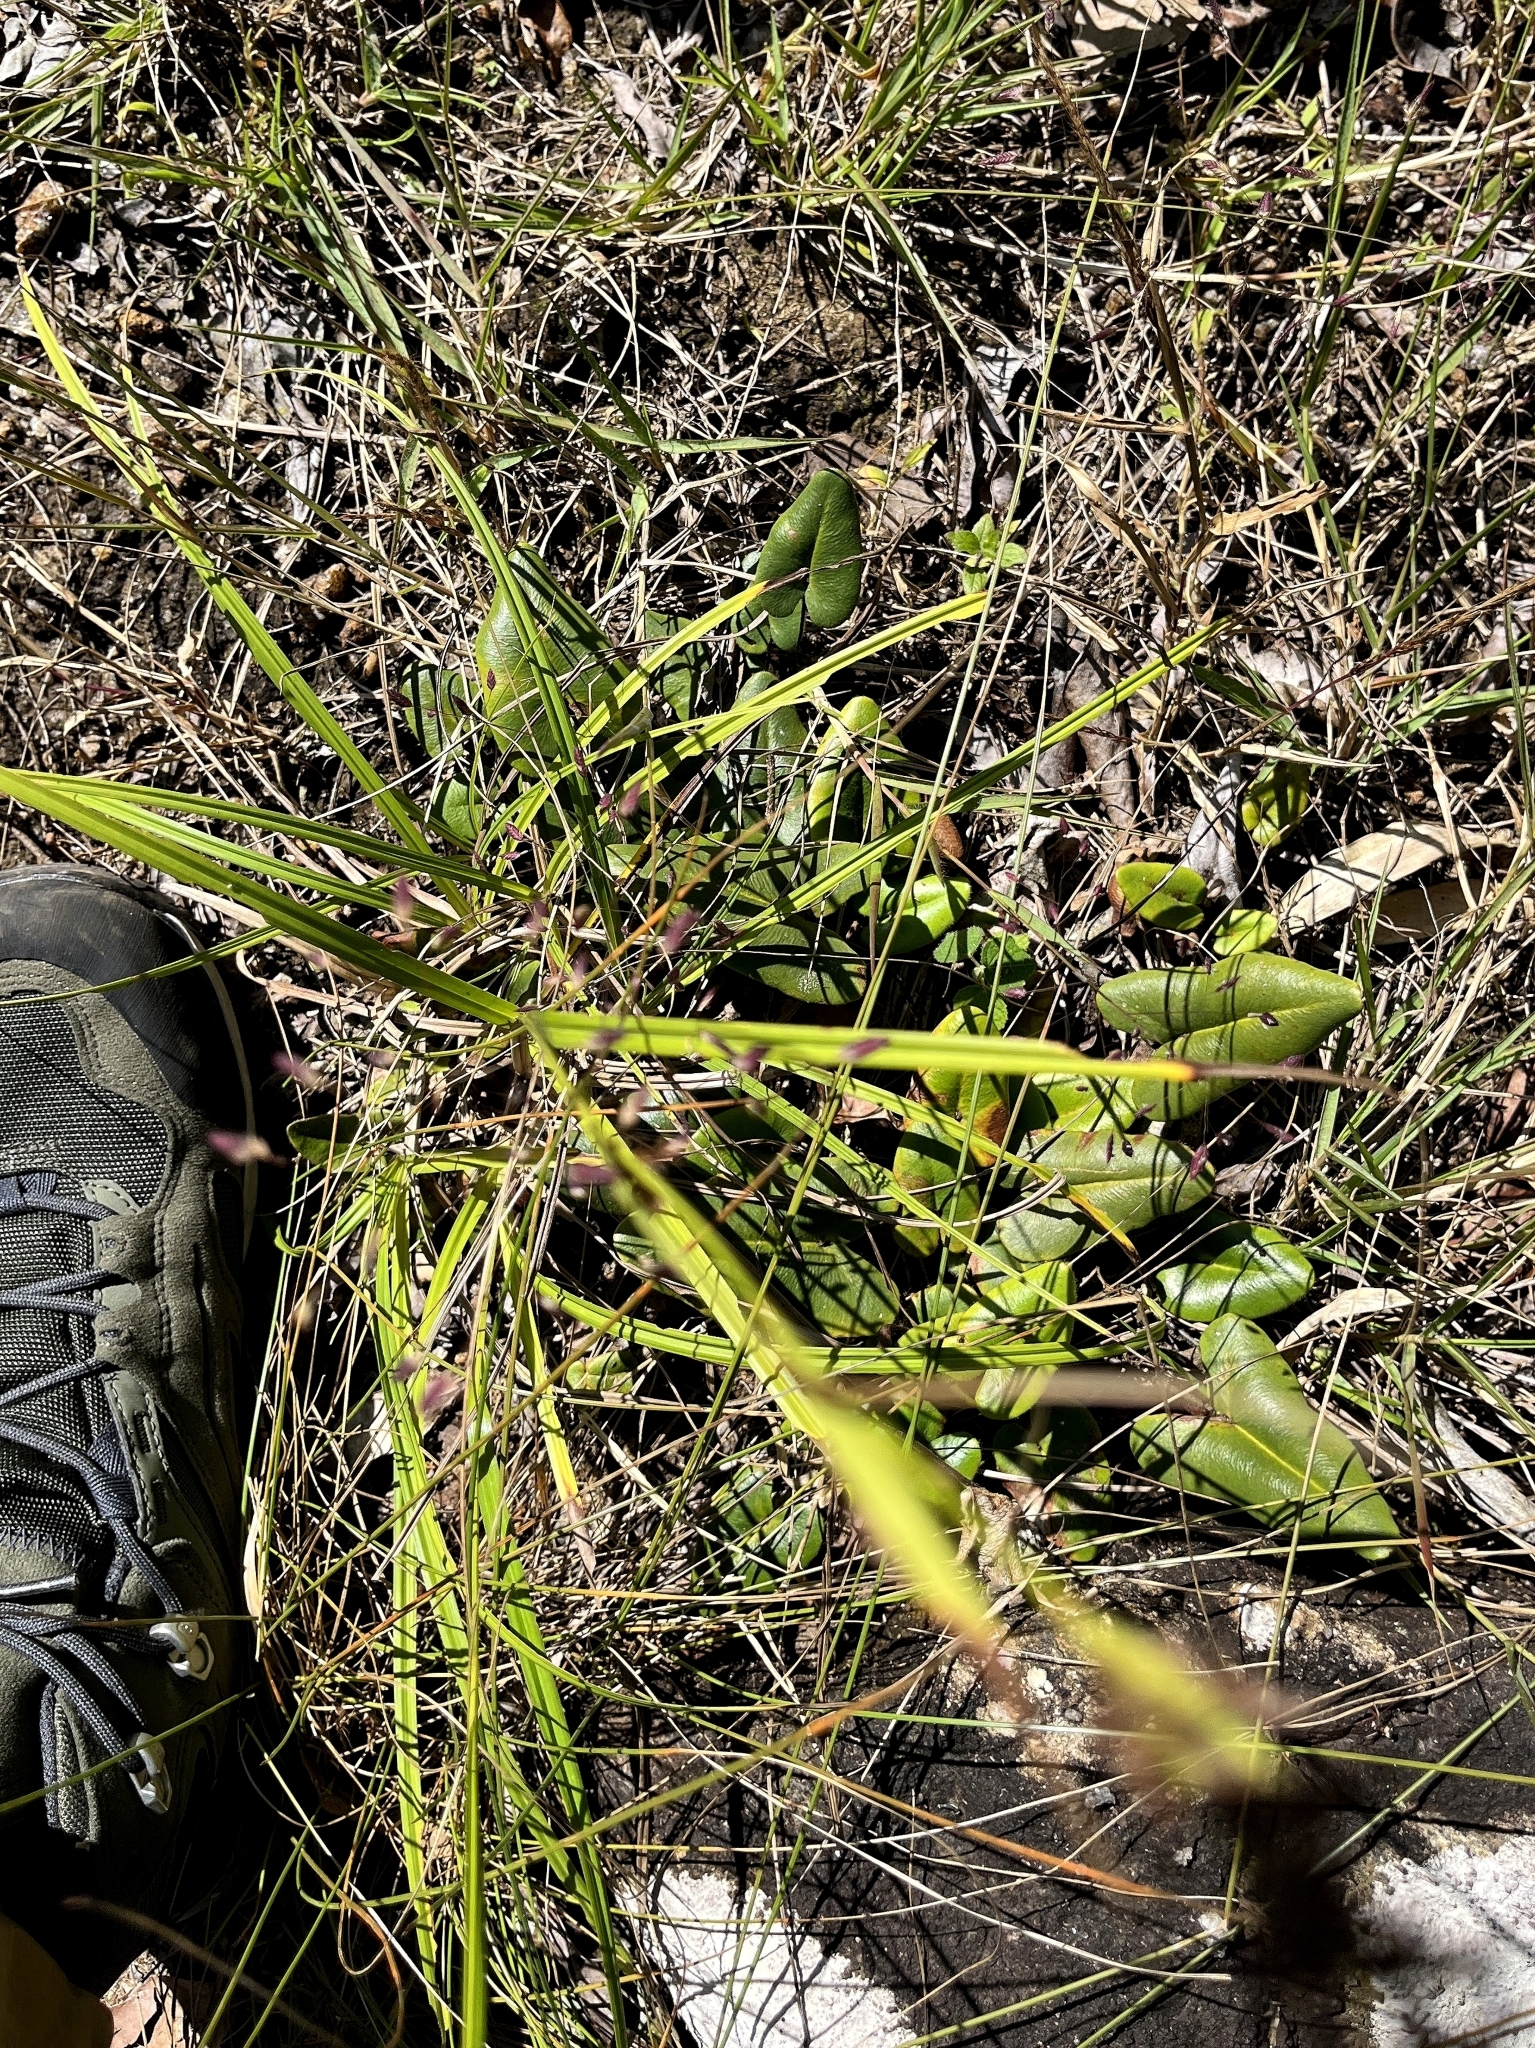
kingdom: Plantae
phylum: Tracheophyta
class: Polypodiopsida
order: Polypodiales
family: Pteridaceae
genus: Mickelopteris
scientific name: Mickelopteris cordata
